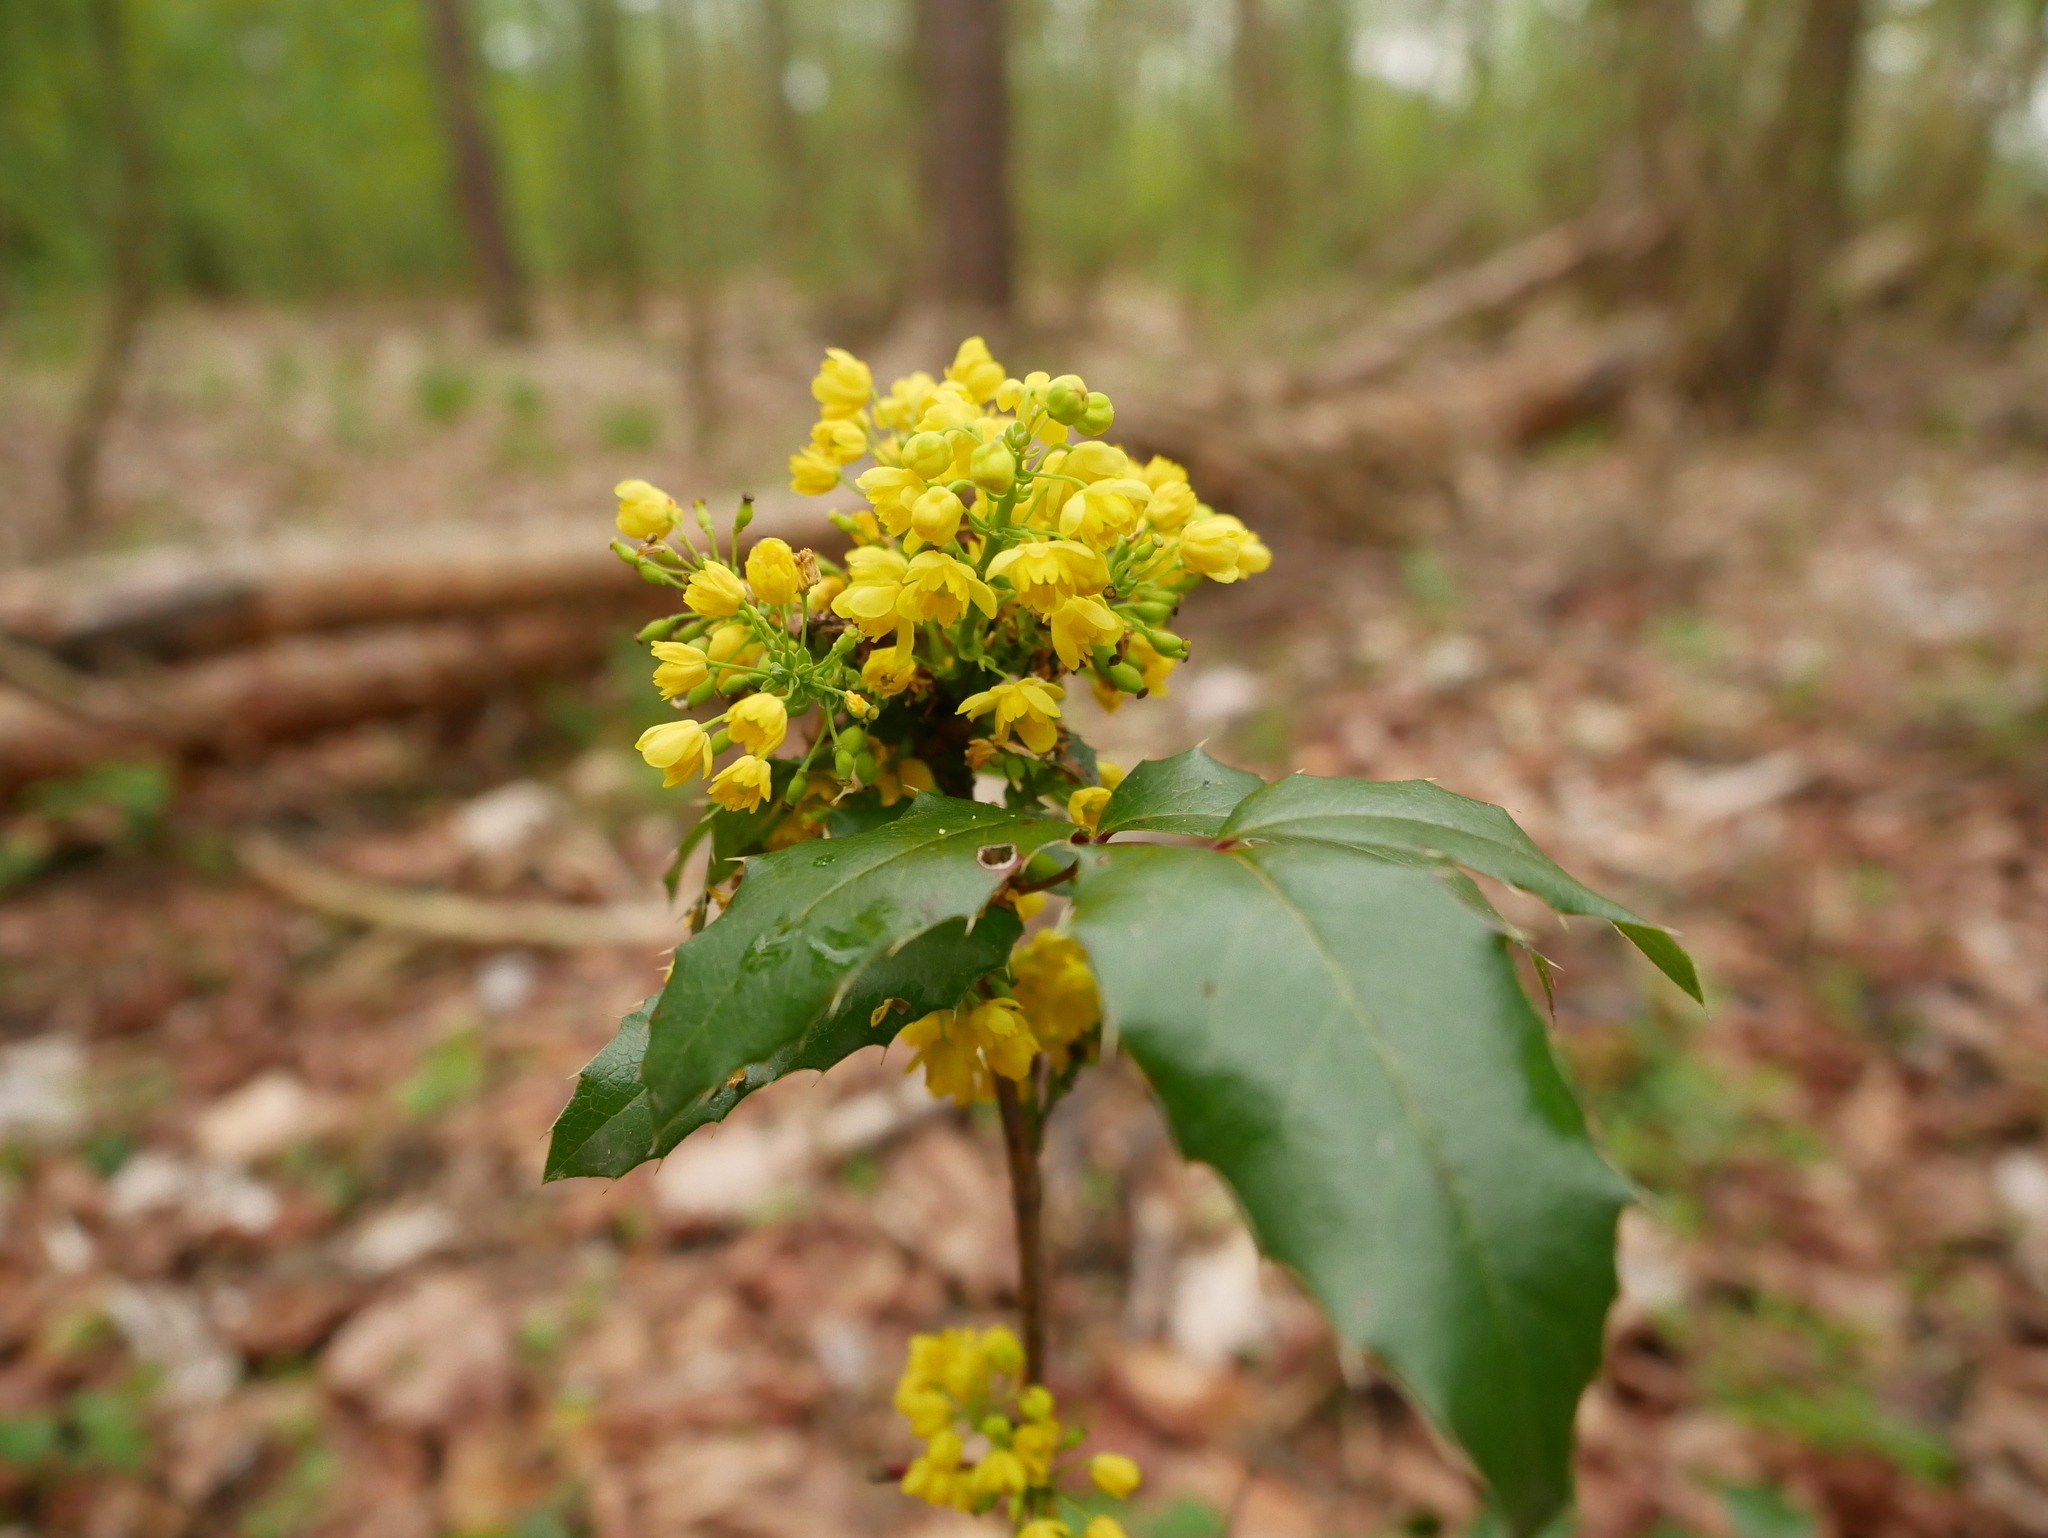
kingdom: Plantae
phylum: Tracheophyta
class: Magnoliopsida
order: Ranunculales
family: Berberidaceae
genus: Mahonia
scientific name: Mahonia aquifolium
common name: Oregon-grape
